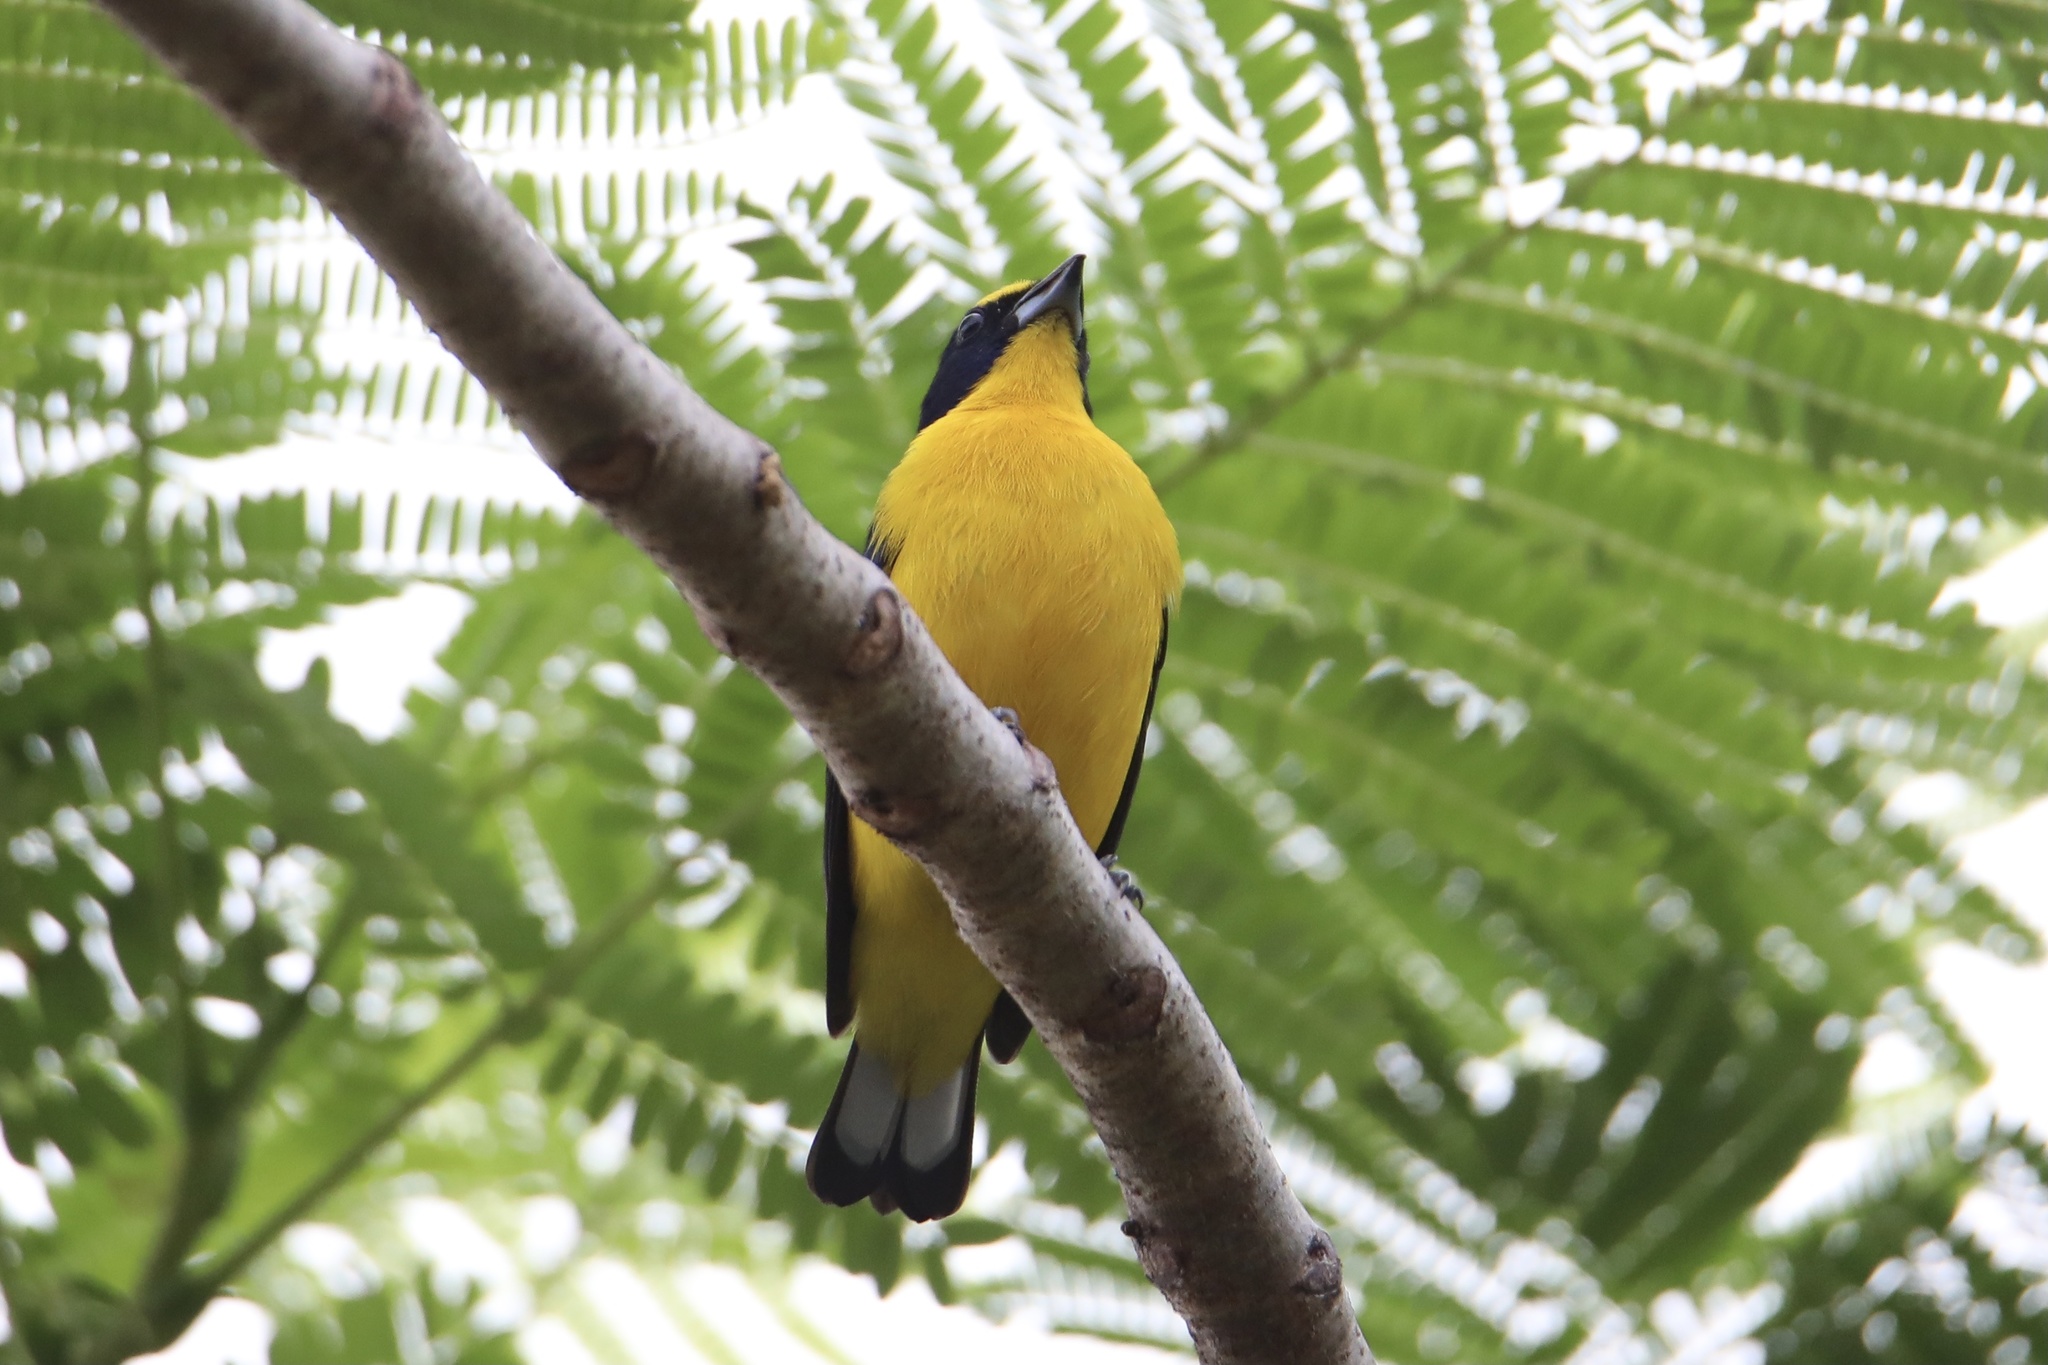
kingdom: Animalia
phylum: Chordata
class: Aves
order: Passeriformes
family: Fringillidae
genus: Euphonia
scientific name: Euphonia laniirostris
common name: Thick-billed euphonia
